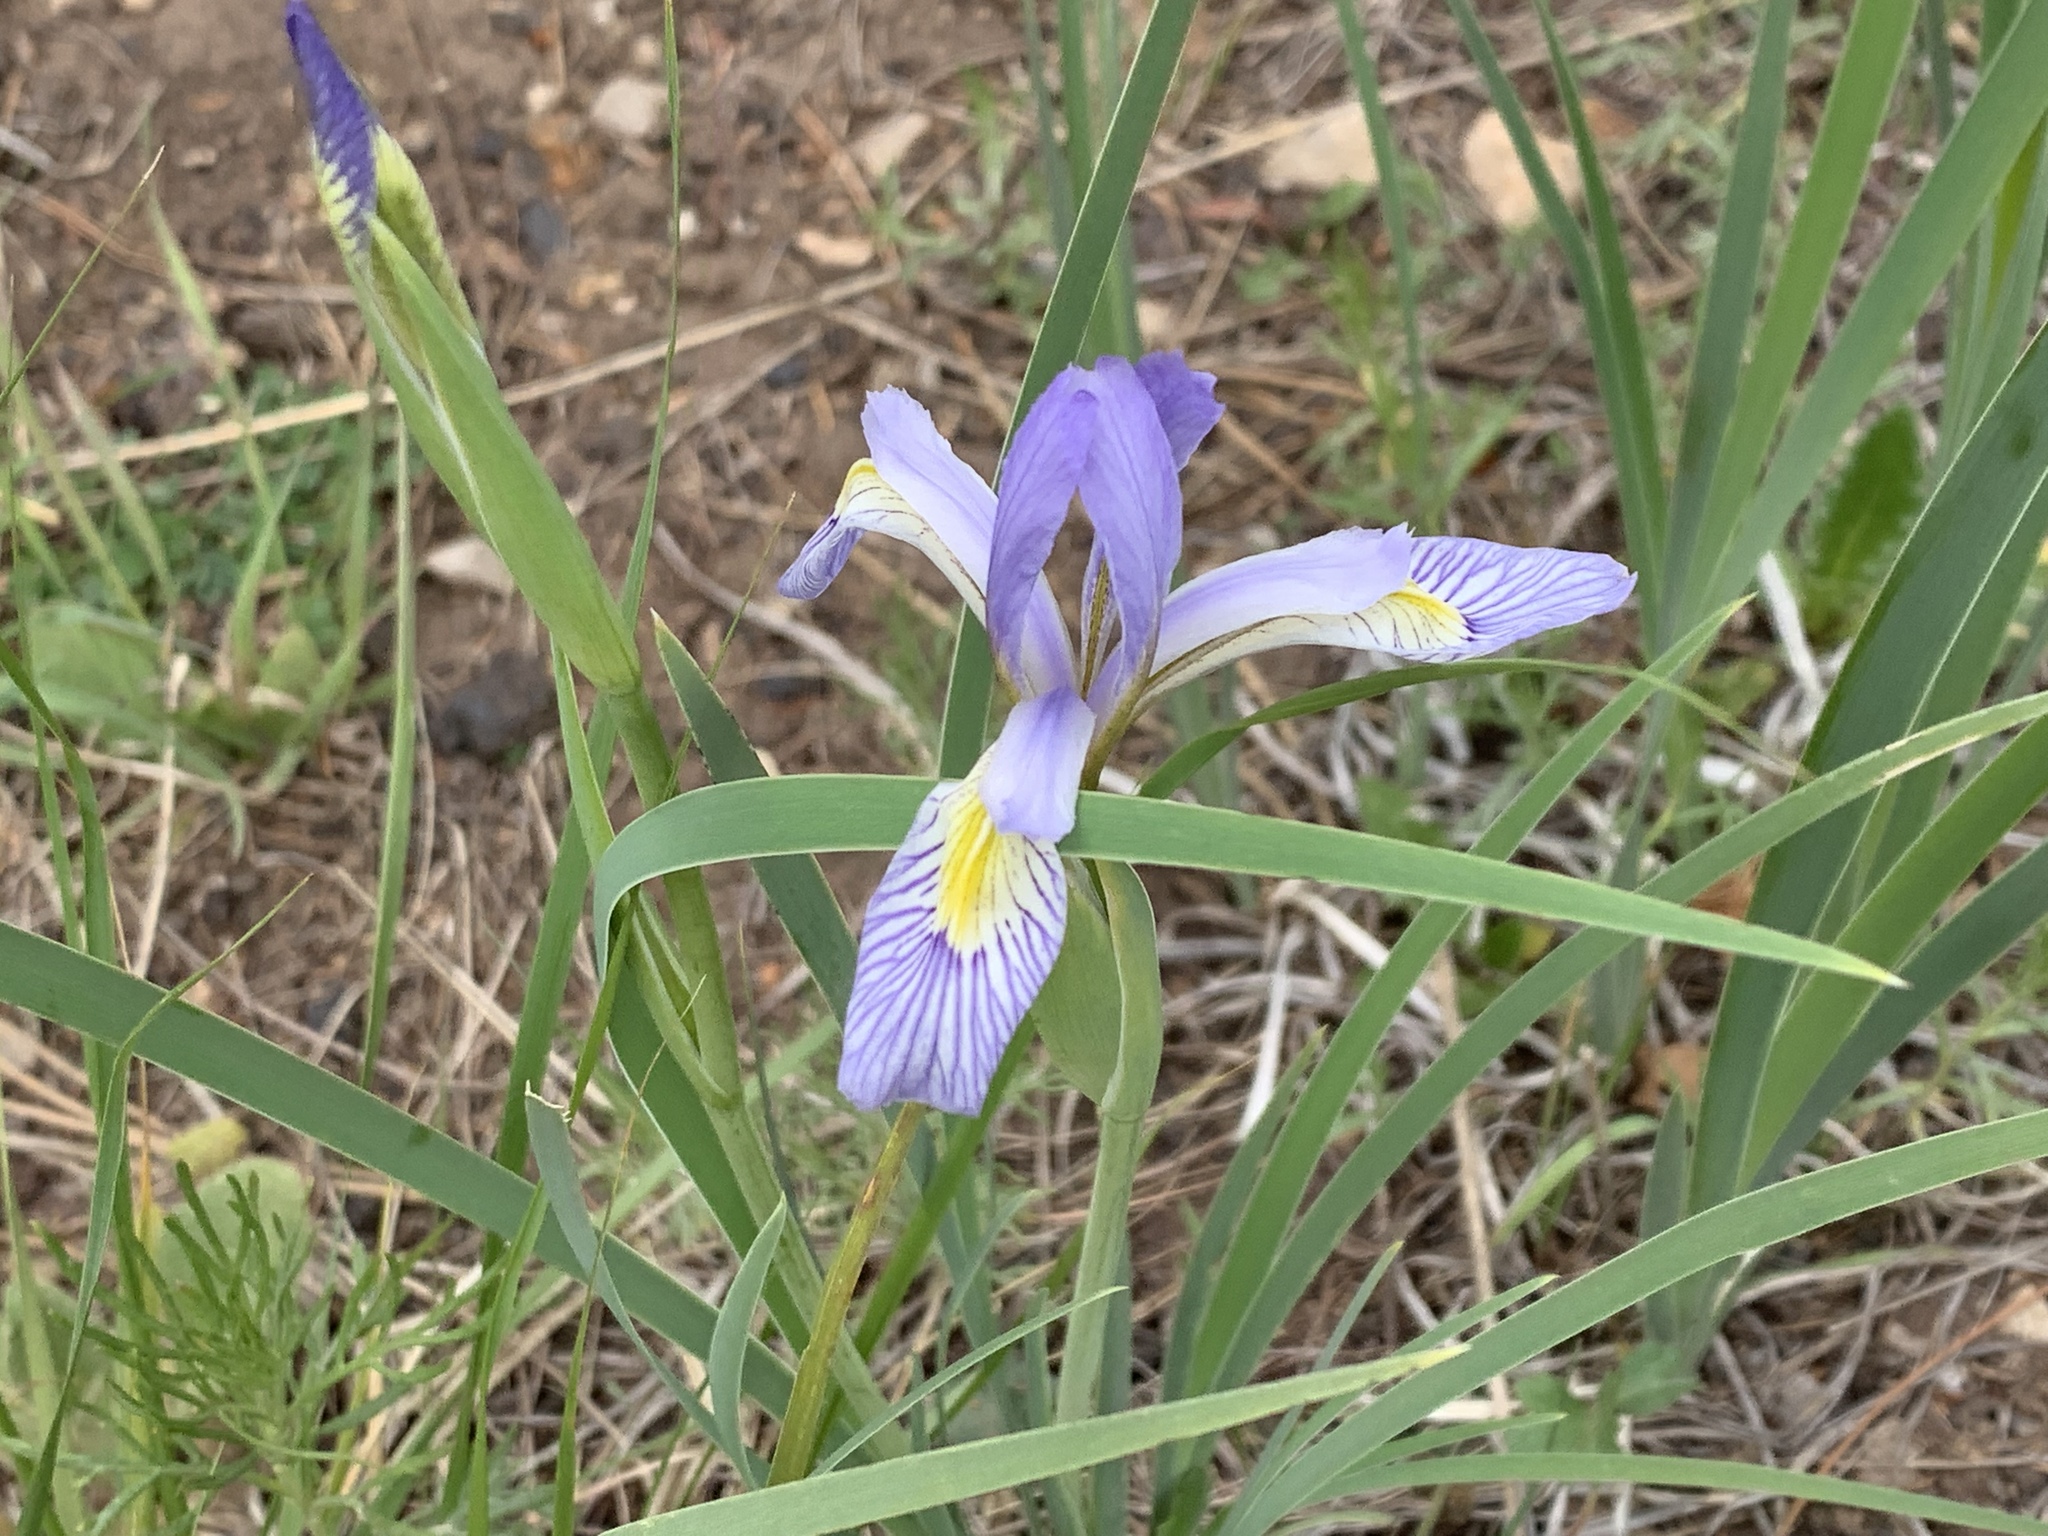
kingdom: Plantae
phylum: Tracheophyta
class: Liliopsida
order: Asparagales
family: Iridaceae
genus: Iris
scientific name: Iris missouriensis
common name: Rocky mountain iris
